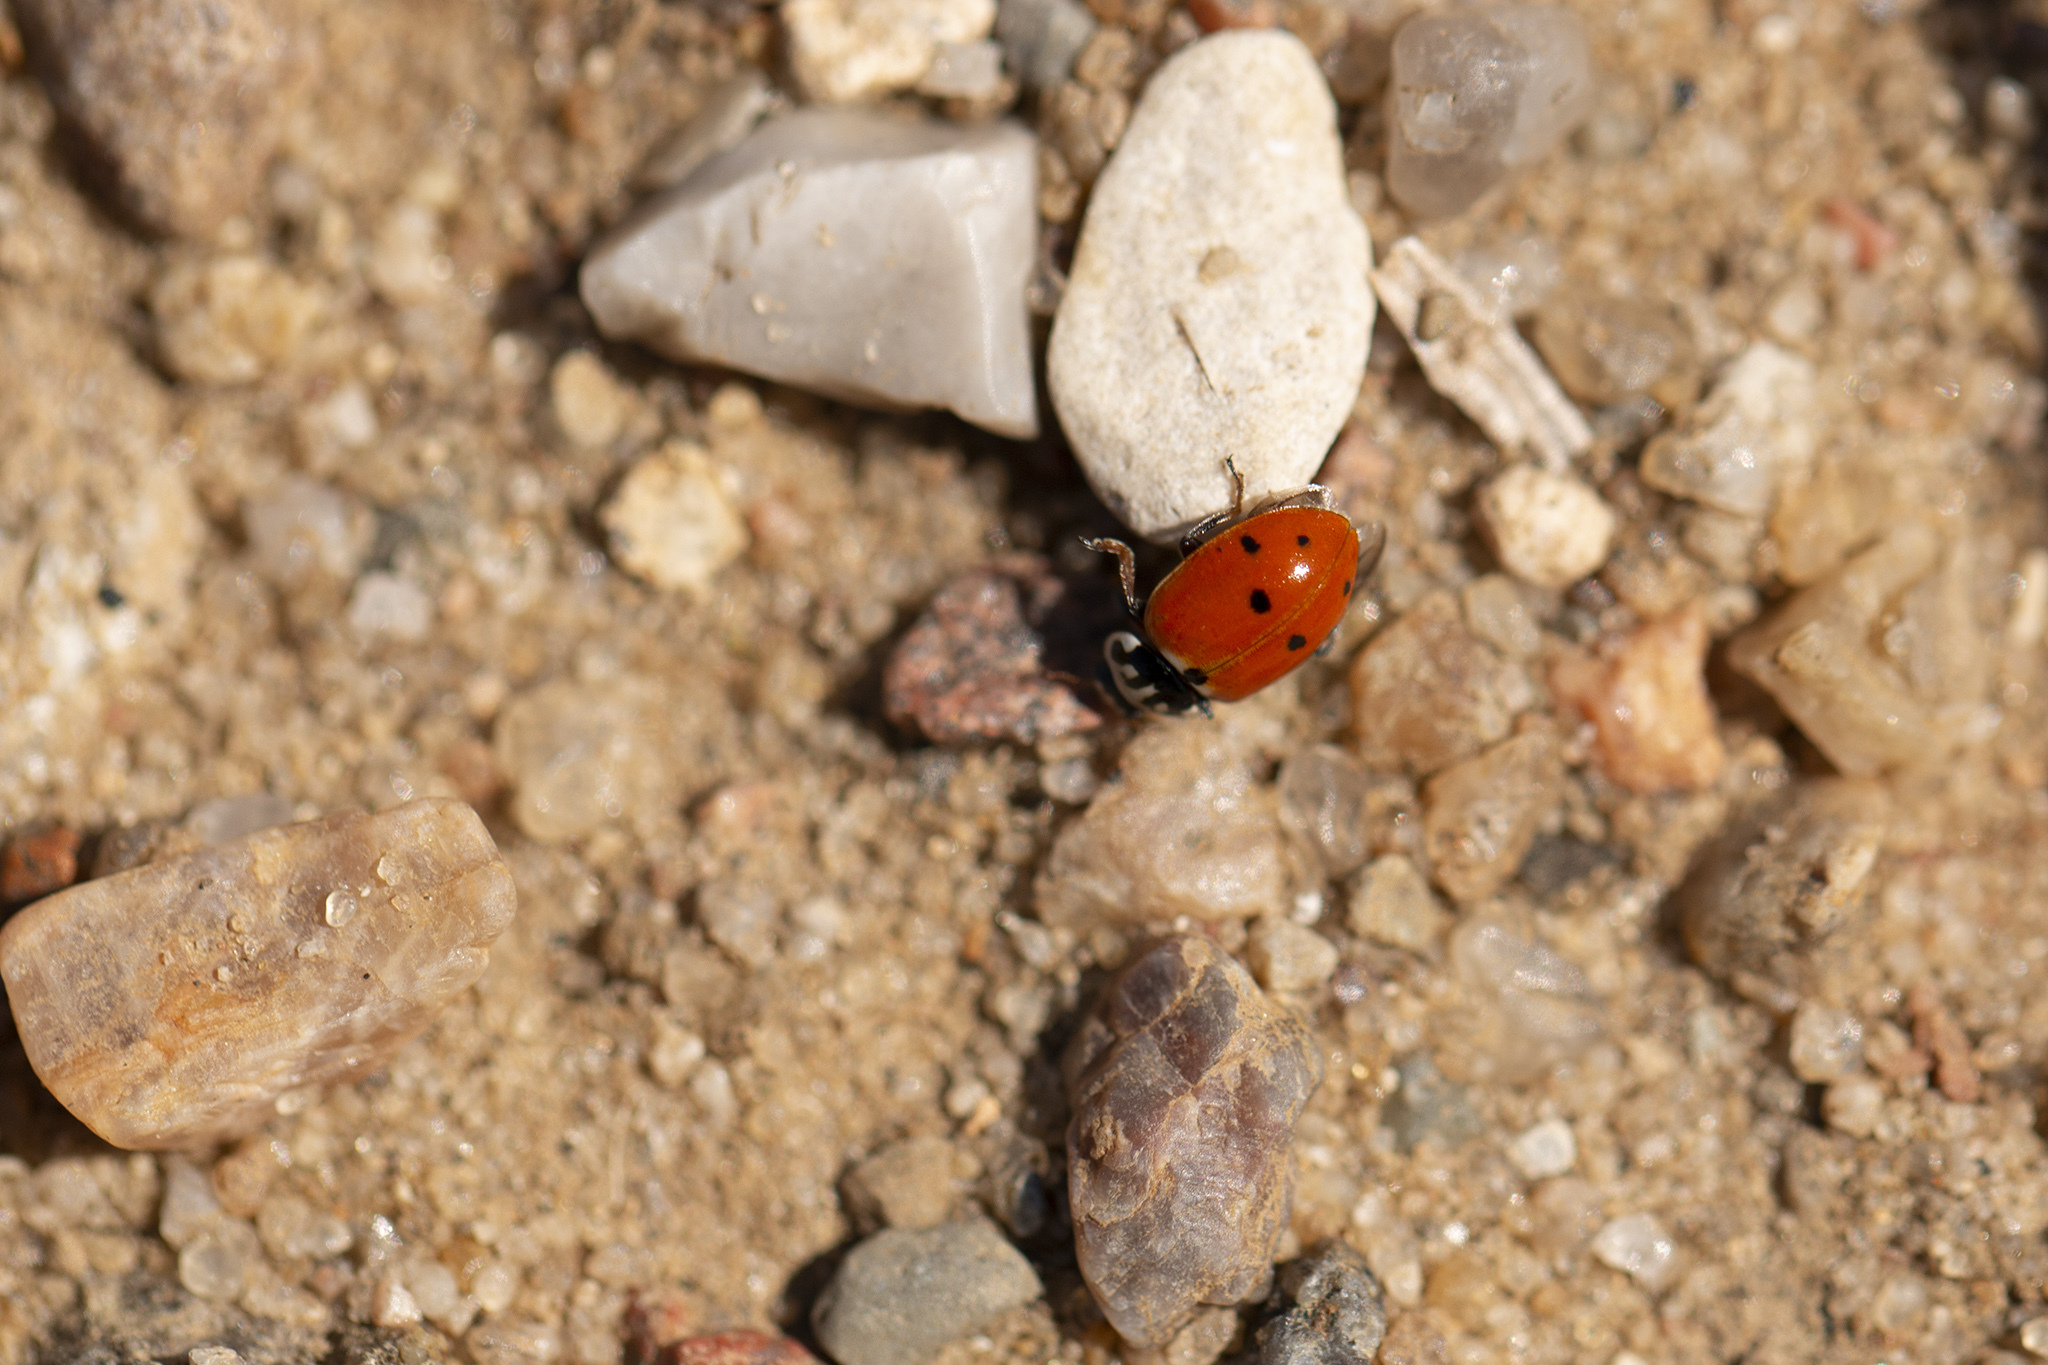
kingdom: Animalia
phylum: Arthropoda
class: Insecta
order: Coleoptera
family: Coccinellidae
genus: Hippodamia
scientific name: Hippodamia variegata
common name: Ladybird beetle
